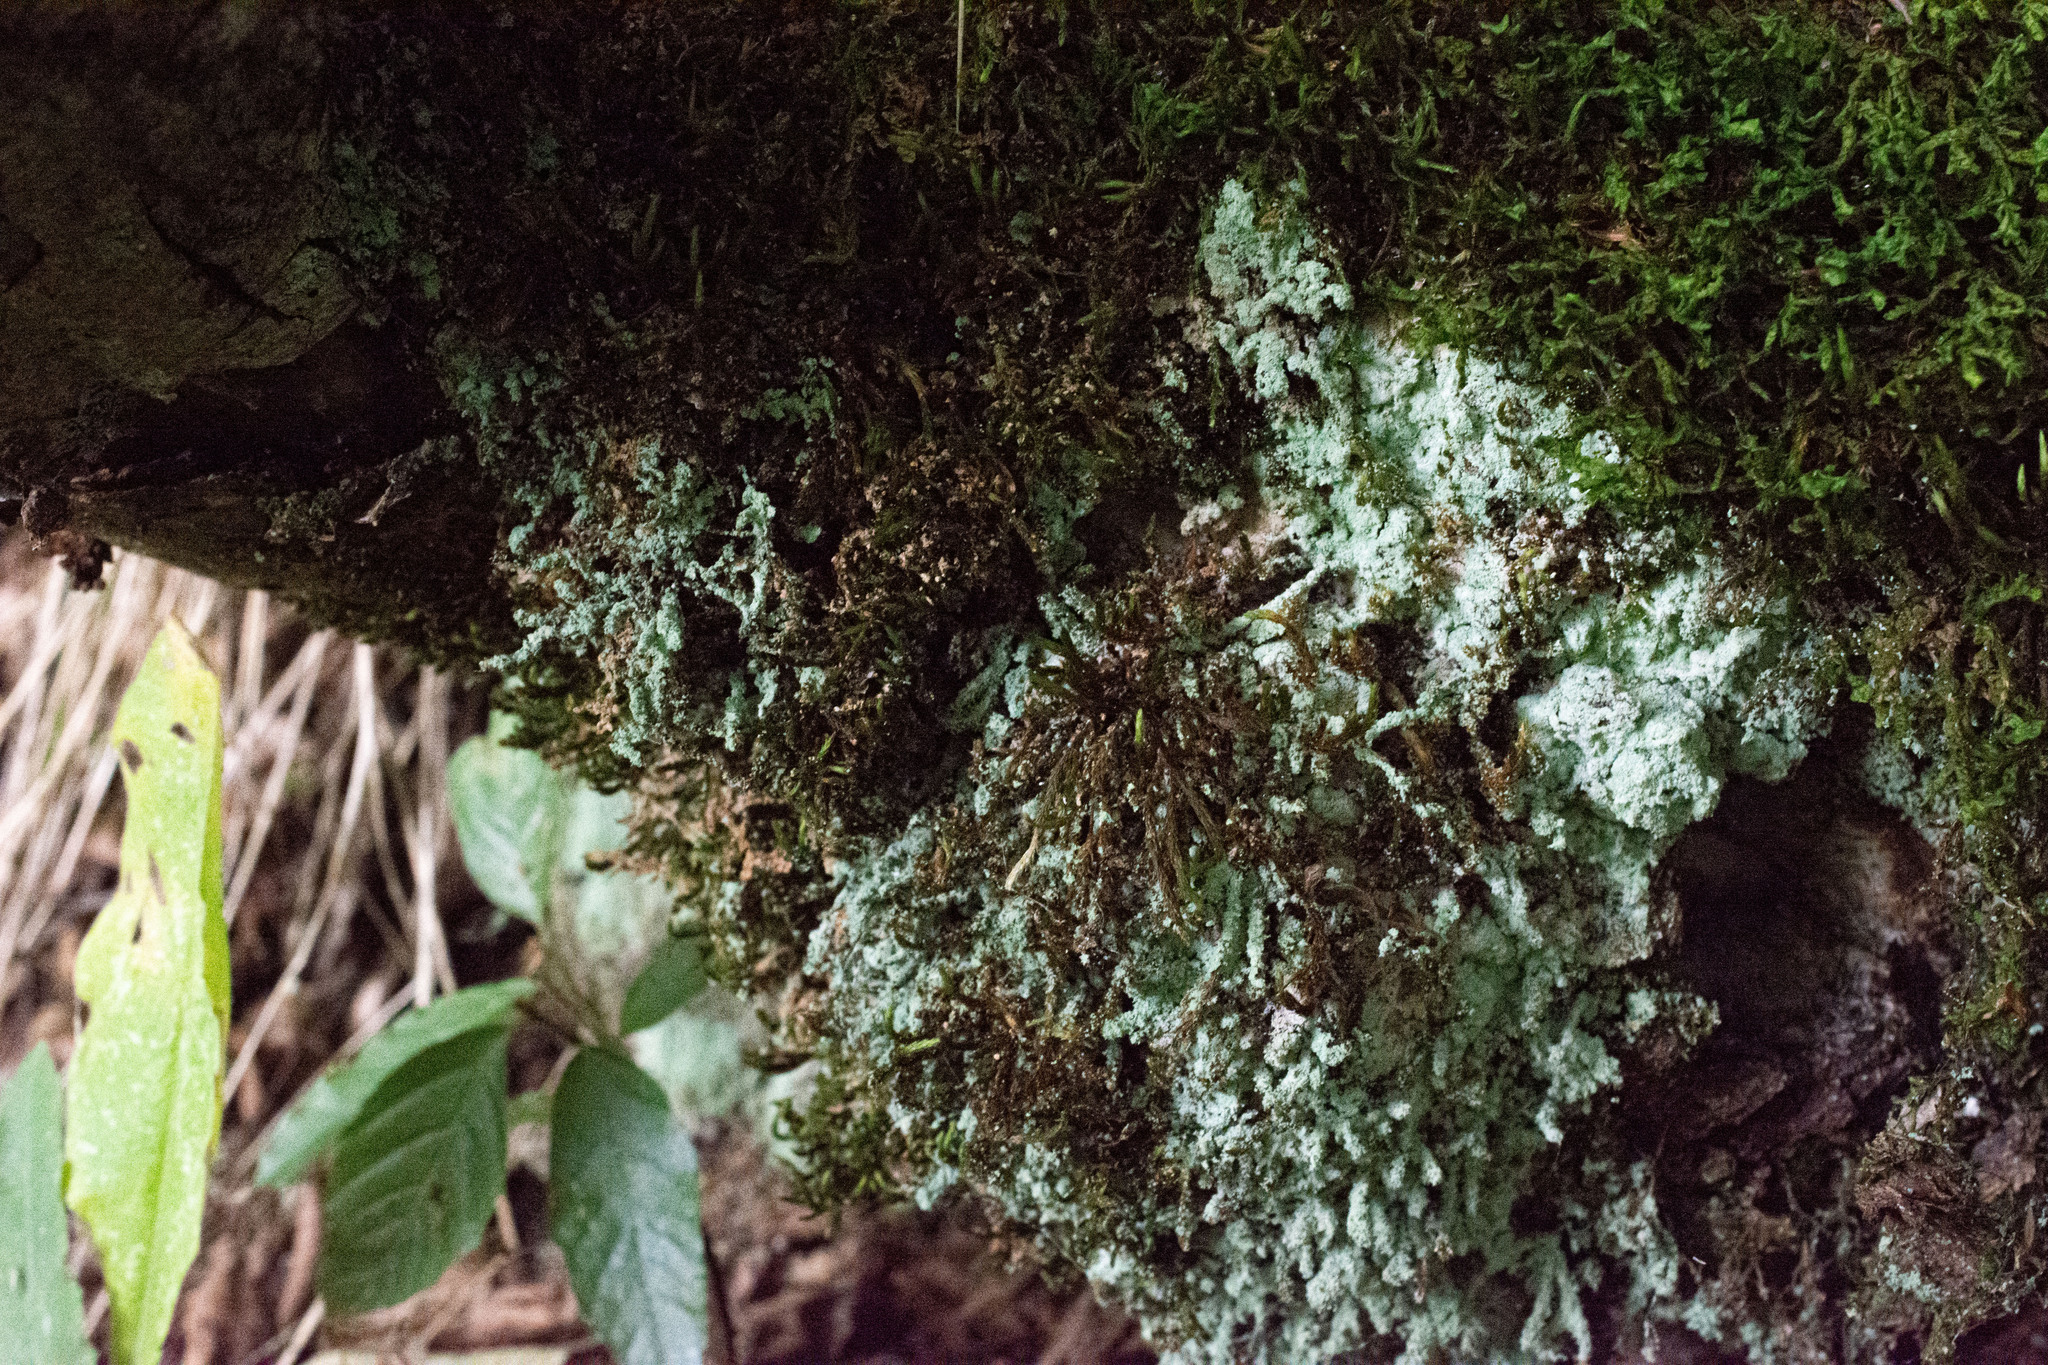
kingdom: Fungi
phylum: Ascomycota
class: Lecanoromycetes
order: Lecanorales
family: Stereocaulaceae
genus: Lepraria
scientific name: Lepraria
